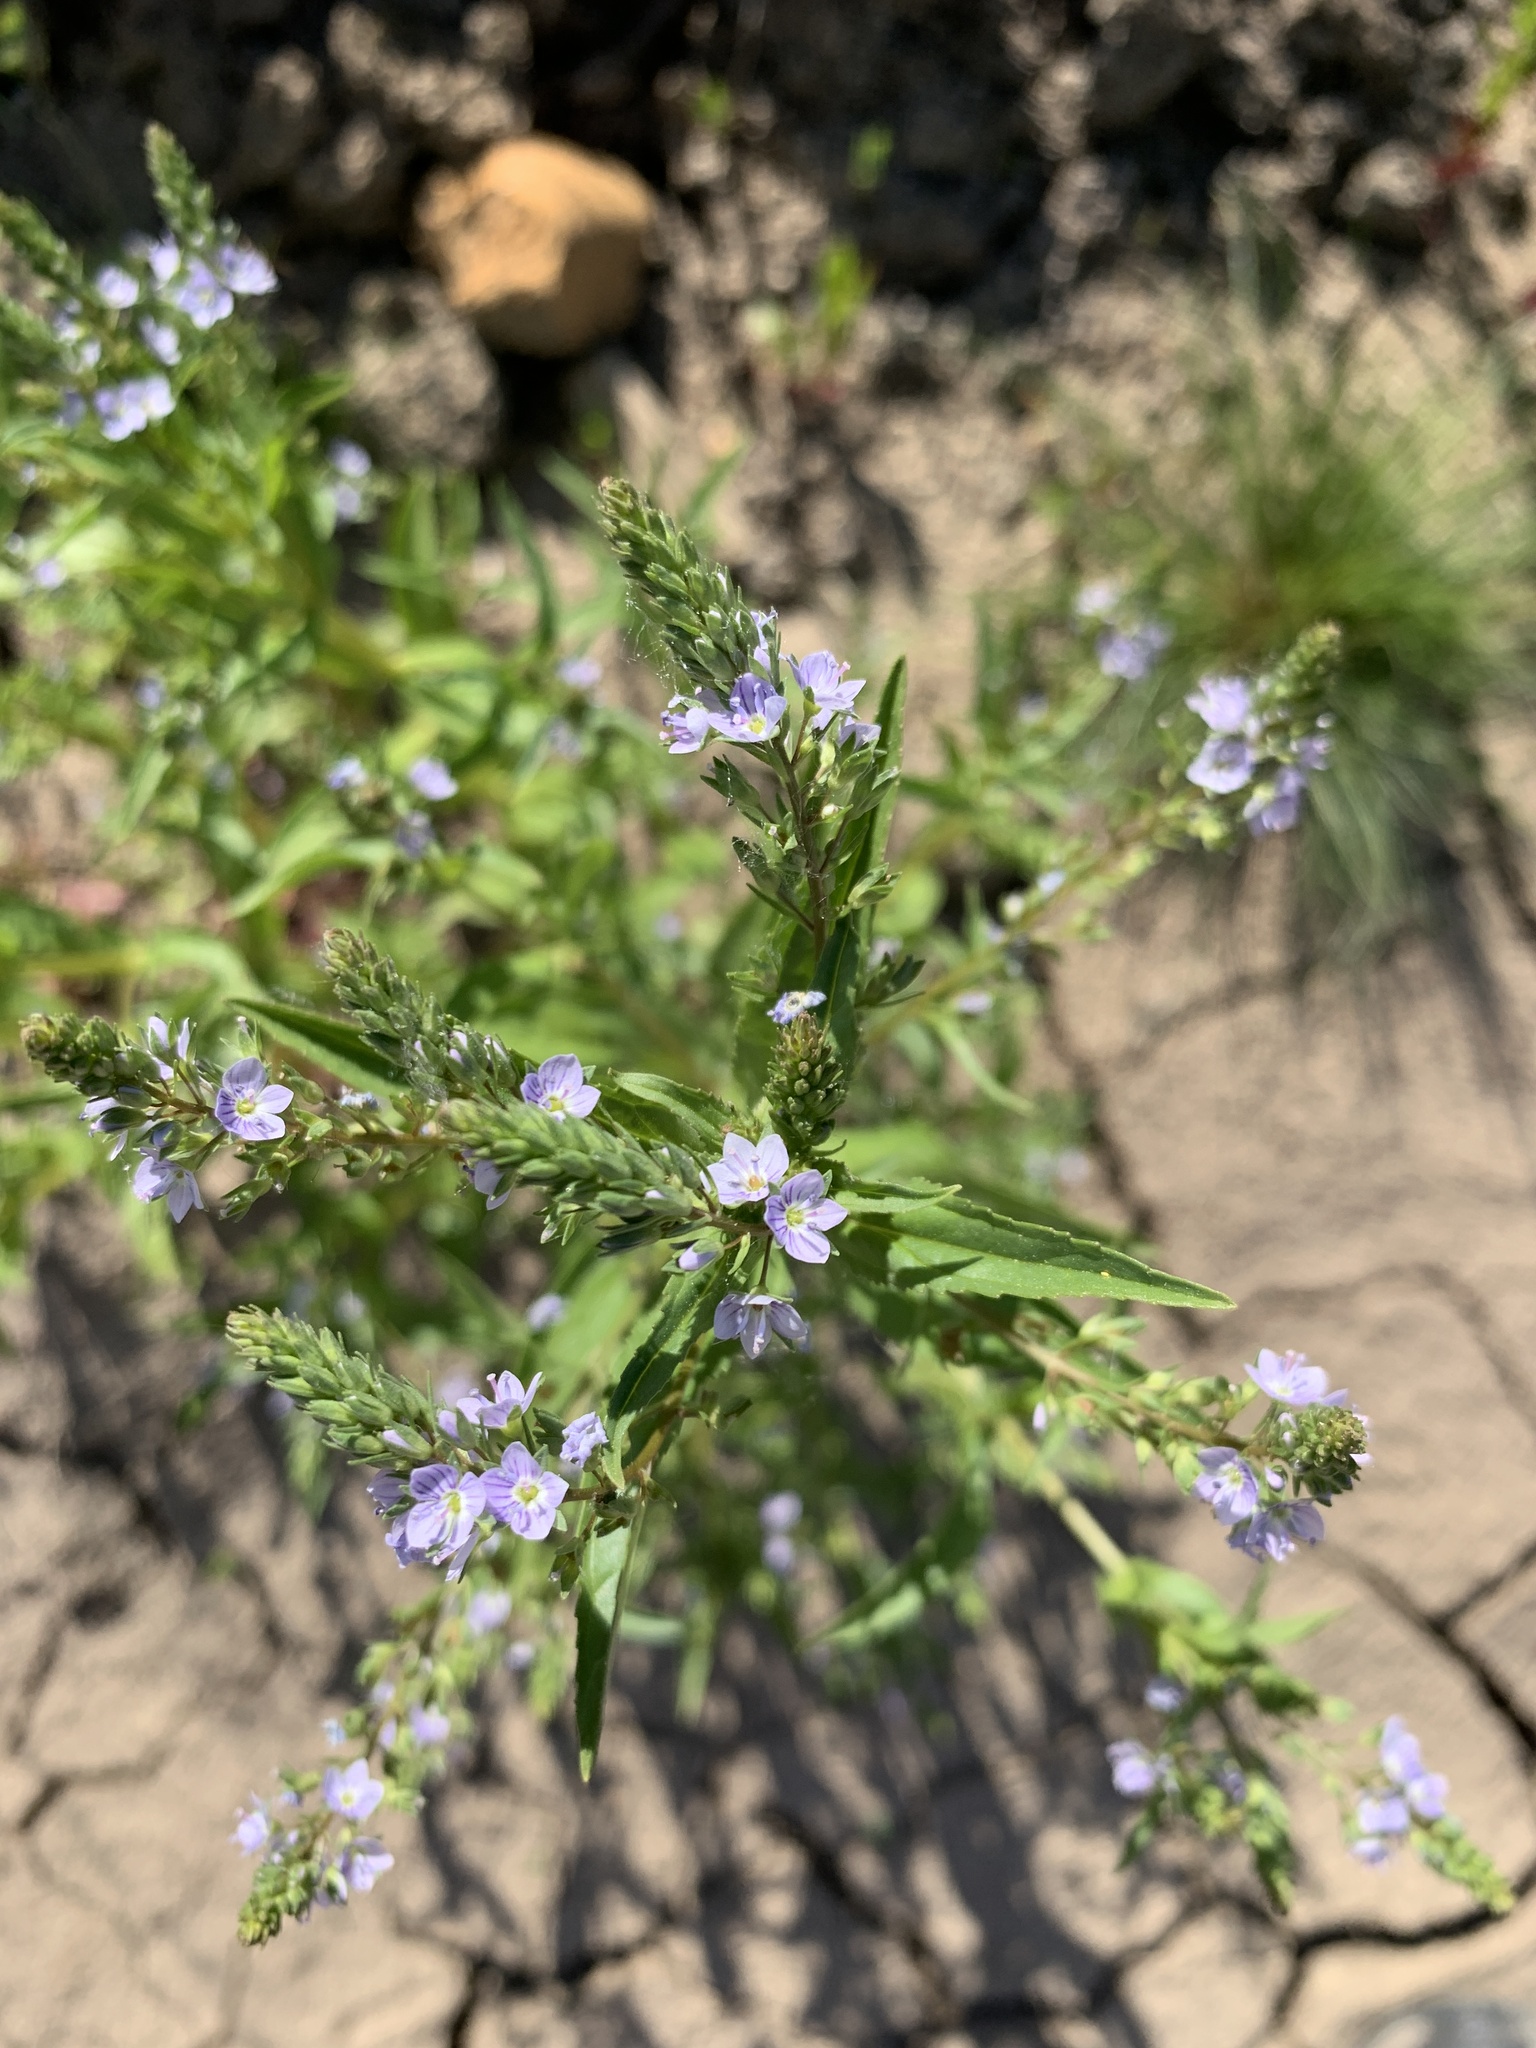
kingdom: Plantae
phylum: Tracheophyta
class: Magnoliopsida
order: Lamiales
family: Plantaginaceae
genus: Veronica
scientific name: Veronica anagallis-aquatica
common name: Water speedwell
